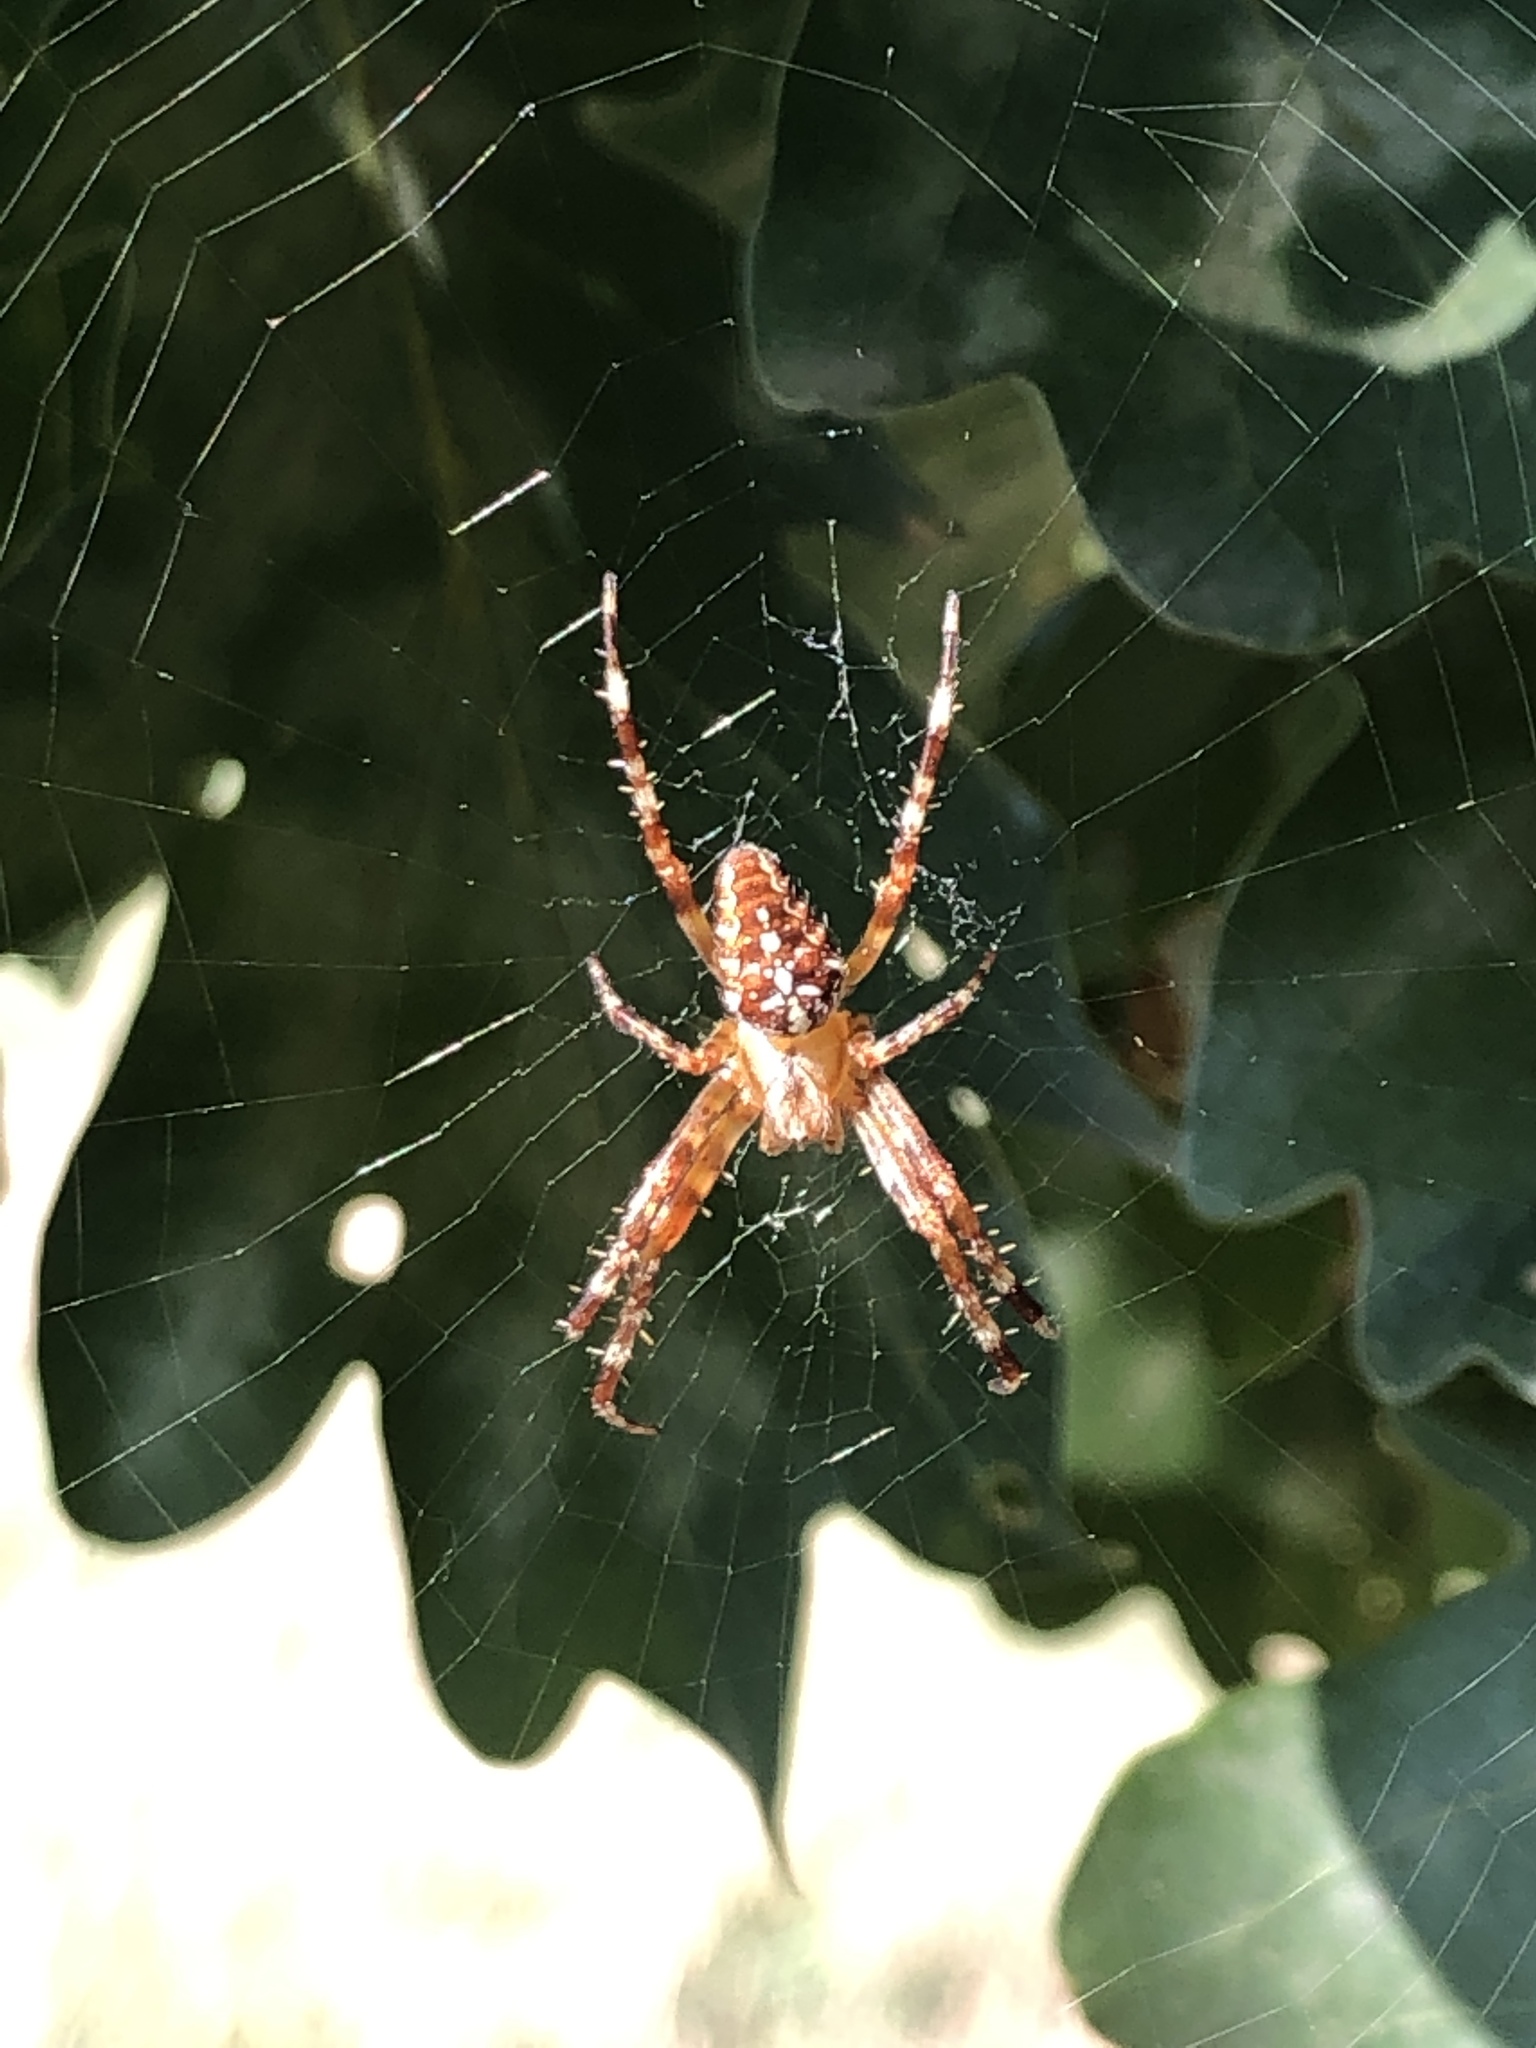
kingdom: Animalia
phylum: Arthropoda
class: Arachnida
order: Araneae
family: Araneidae
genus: Araneus
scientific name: Araneus diadematus
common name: Cross orbweaver
